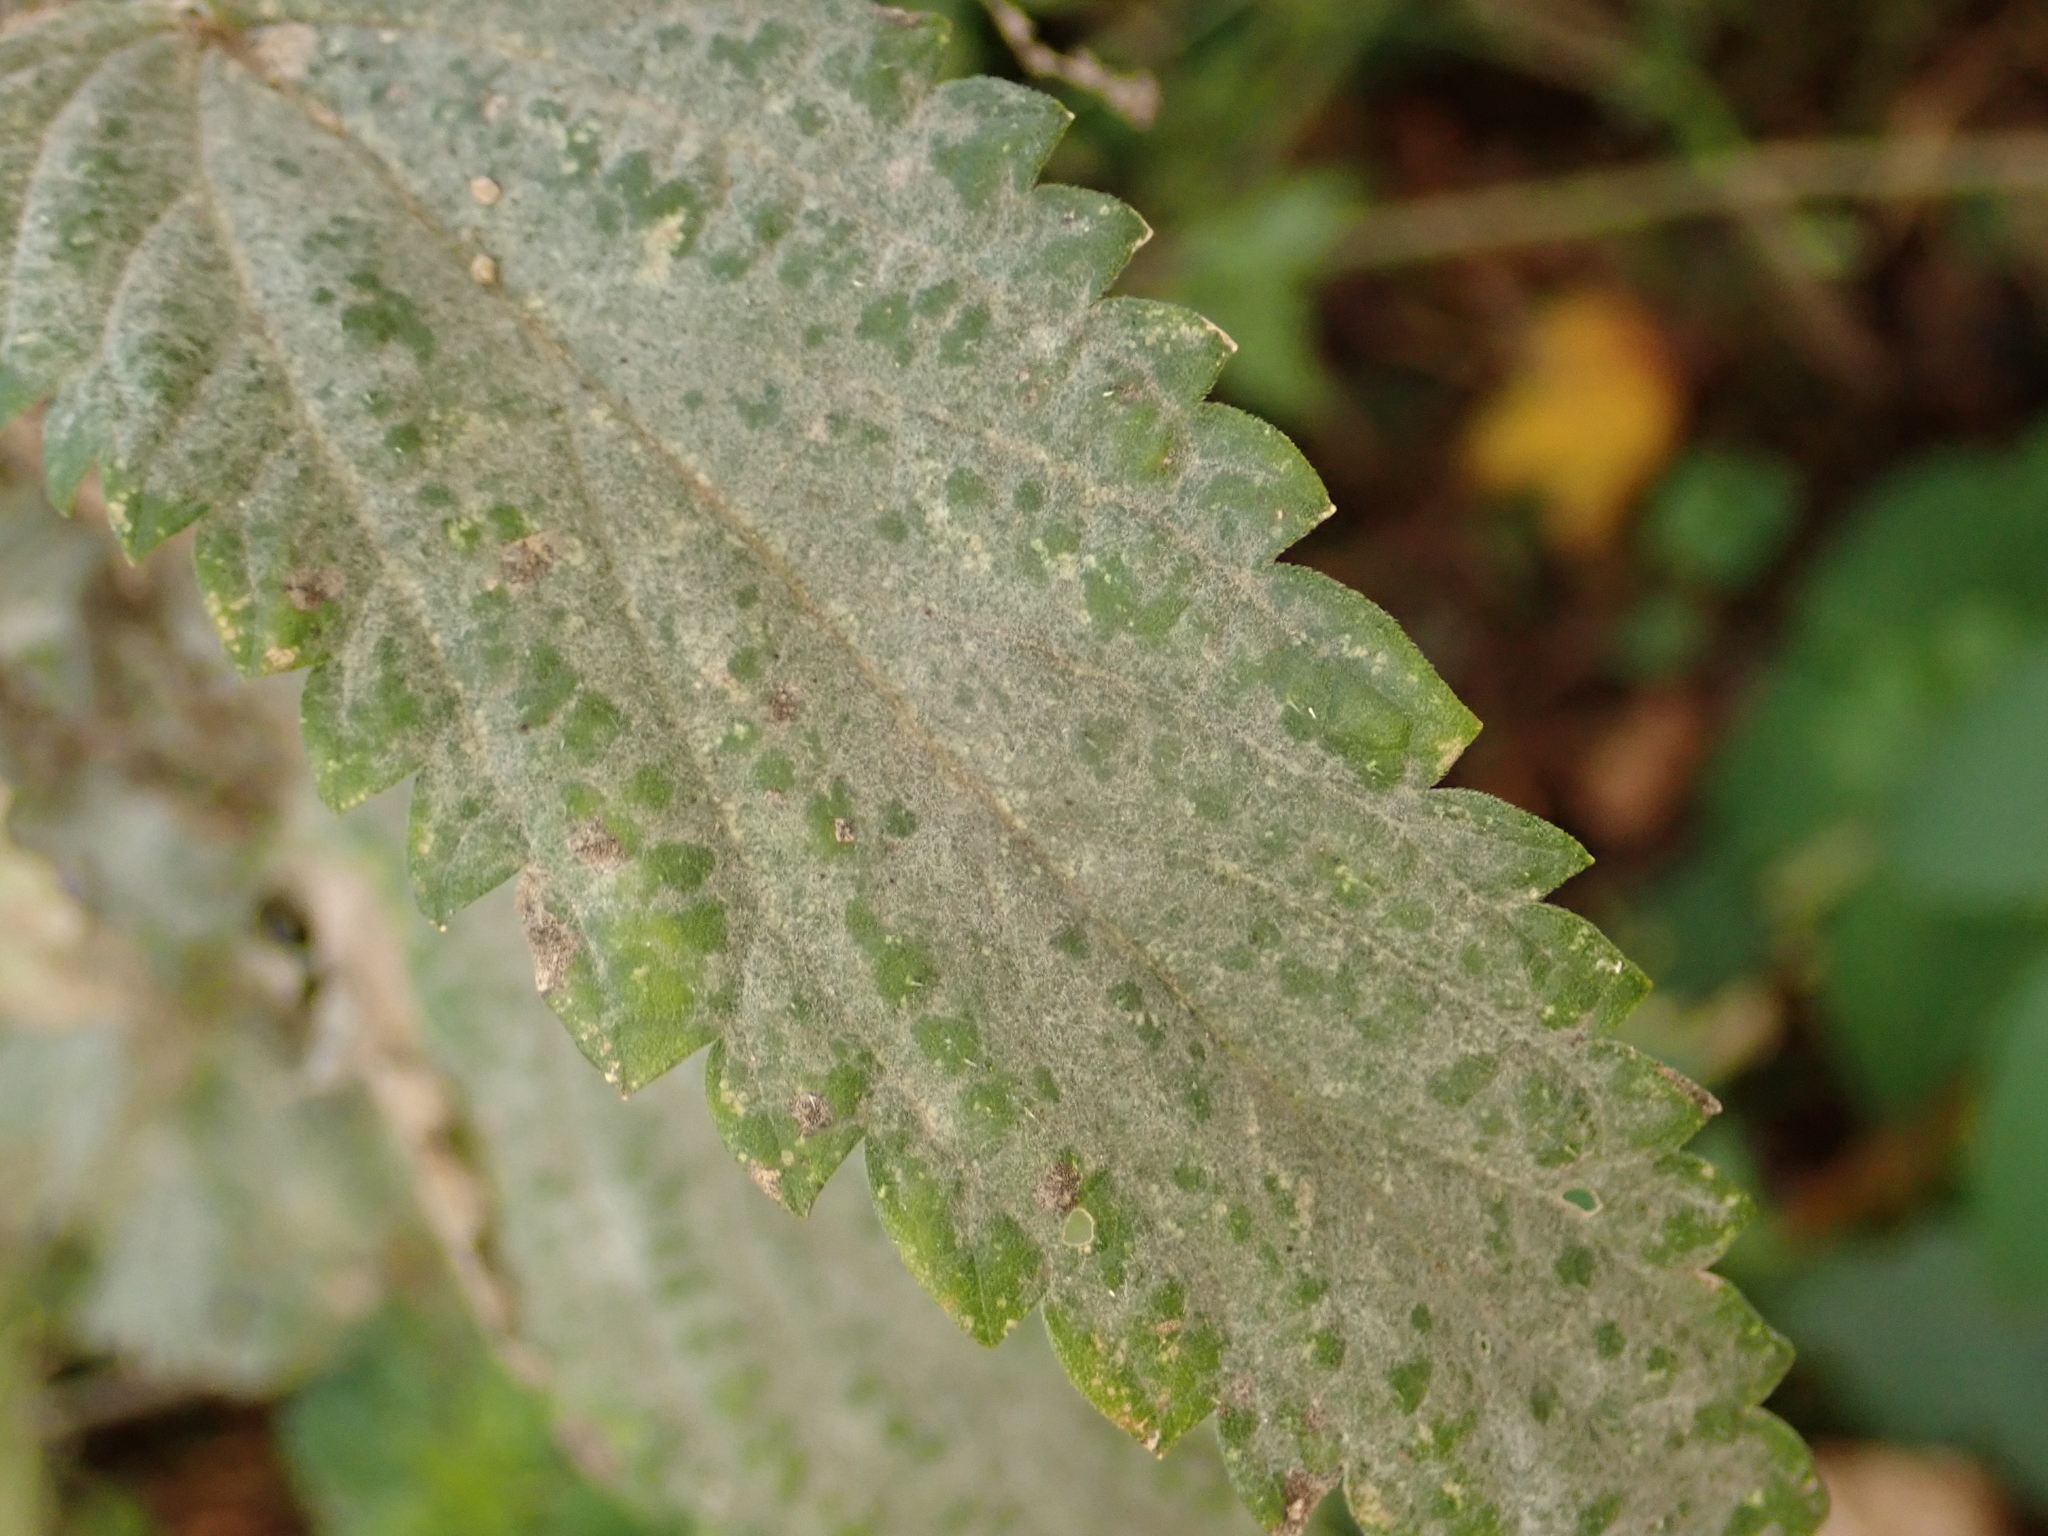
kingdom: Fungi
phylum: Ascomycota
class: Leotiomycetes
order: Helotiales
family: Erysiphaceae
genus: Erysiphe
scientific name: Erysiphe urticae
